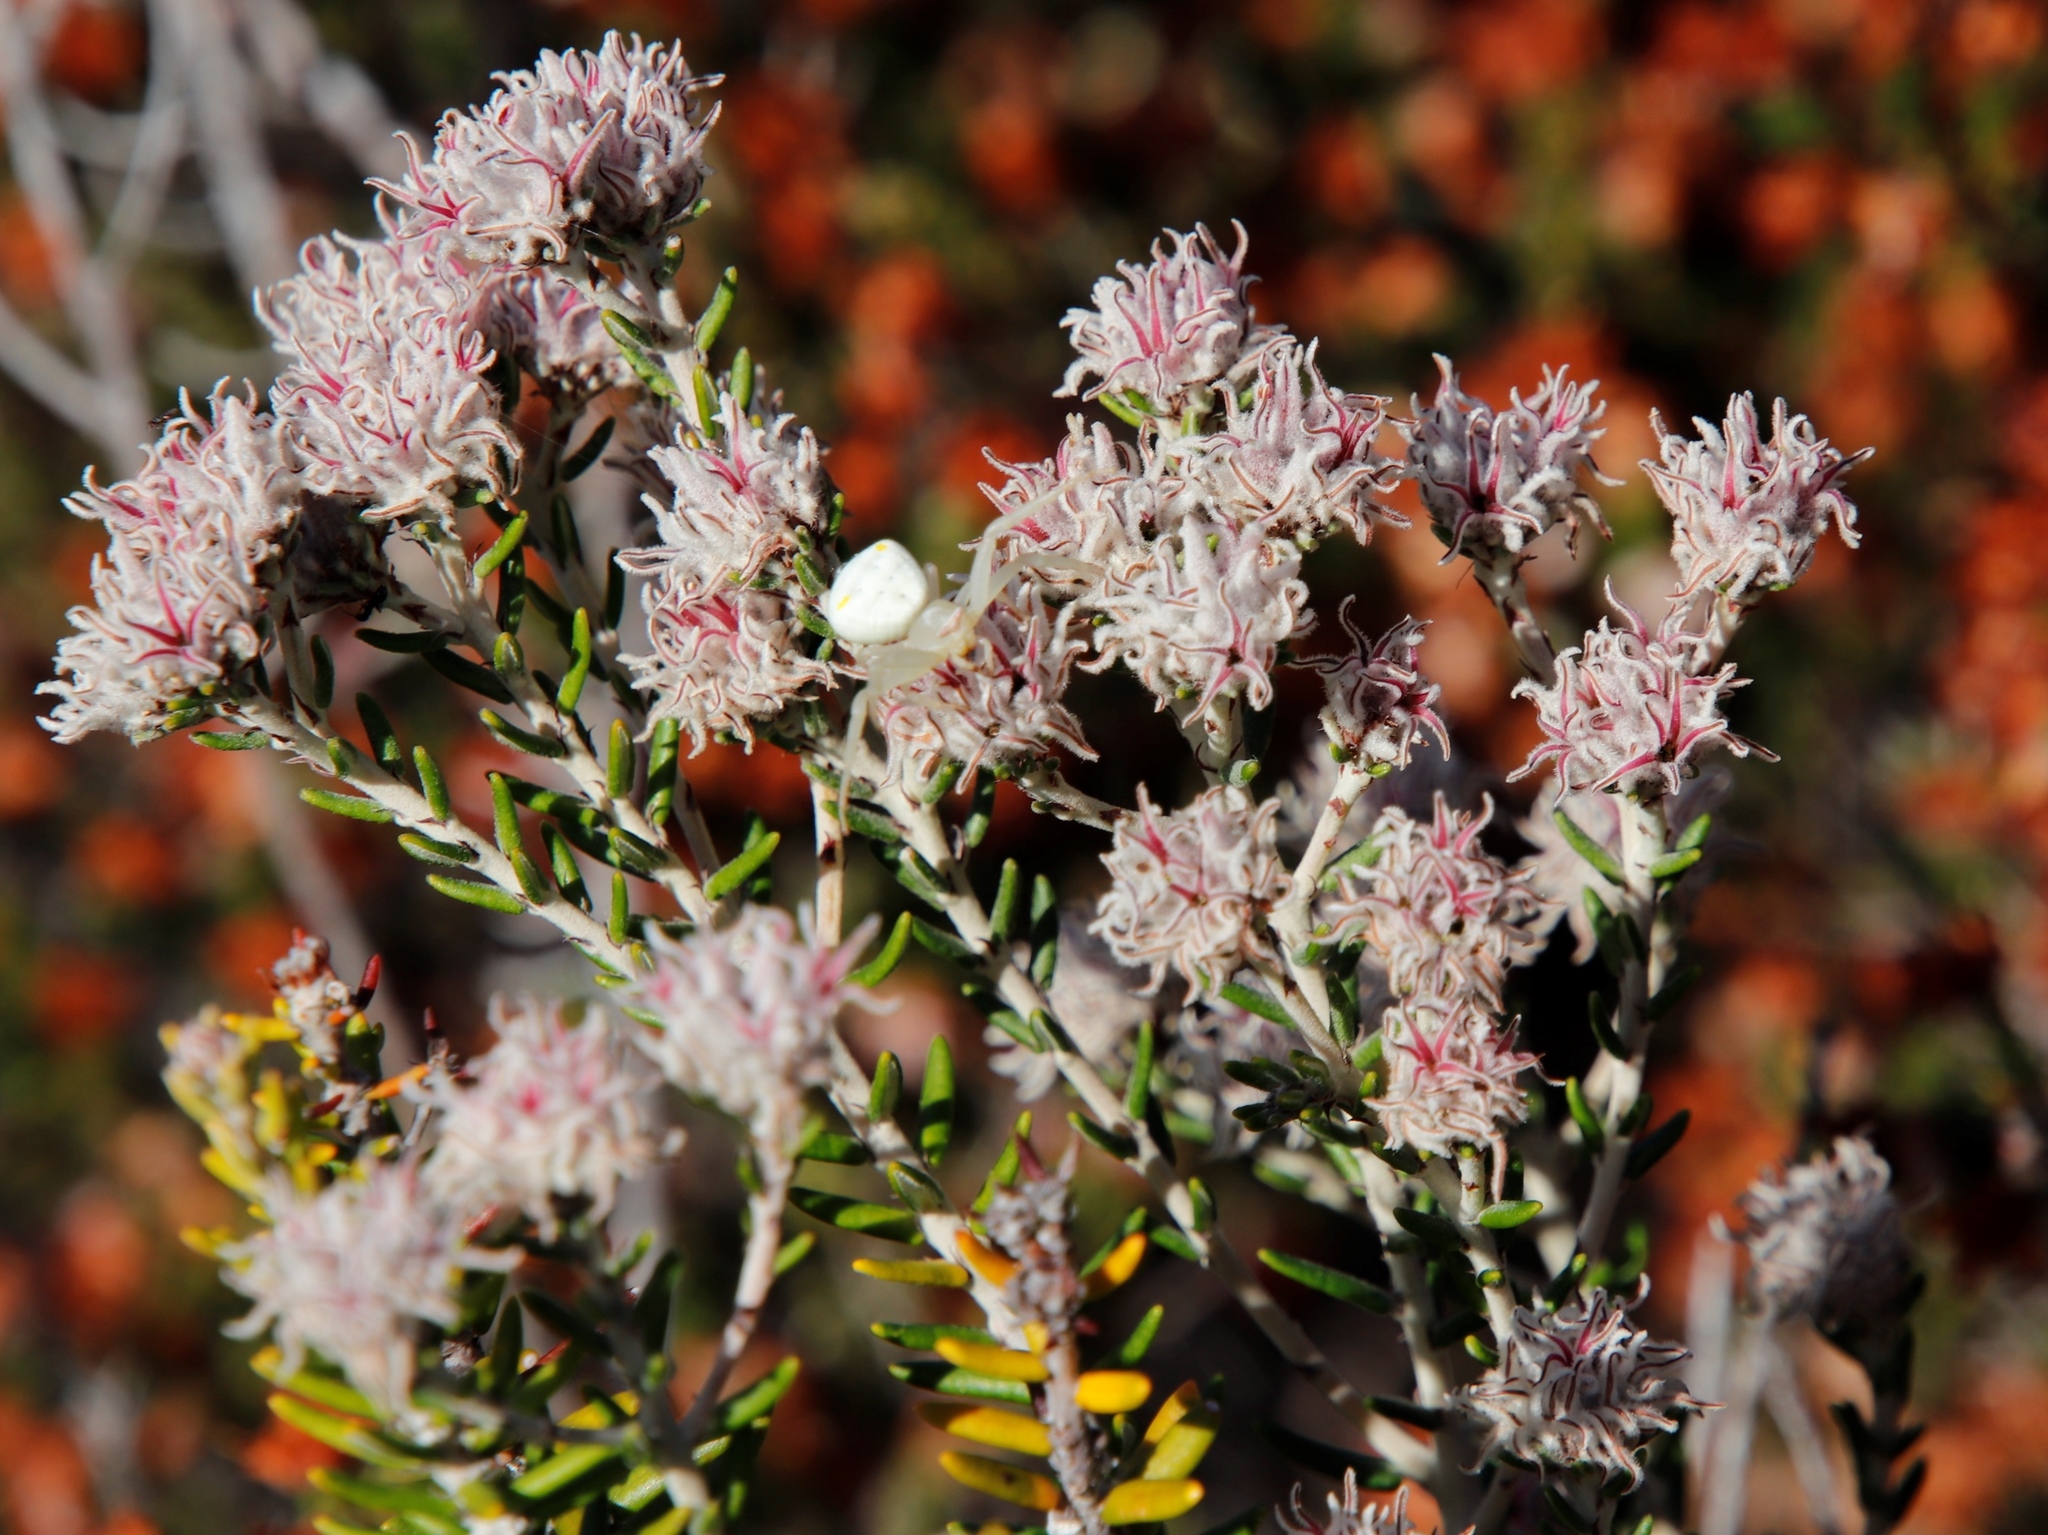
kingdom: Plantae
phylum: Tracheophyta
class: Magnoliopsida
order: Rosales
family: Rhamnaceae
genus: Trichocephalus
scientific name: Trichocephalus stipularis
